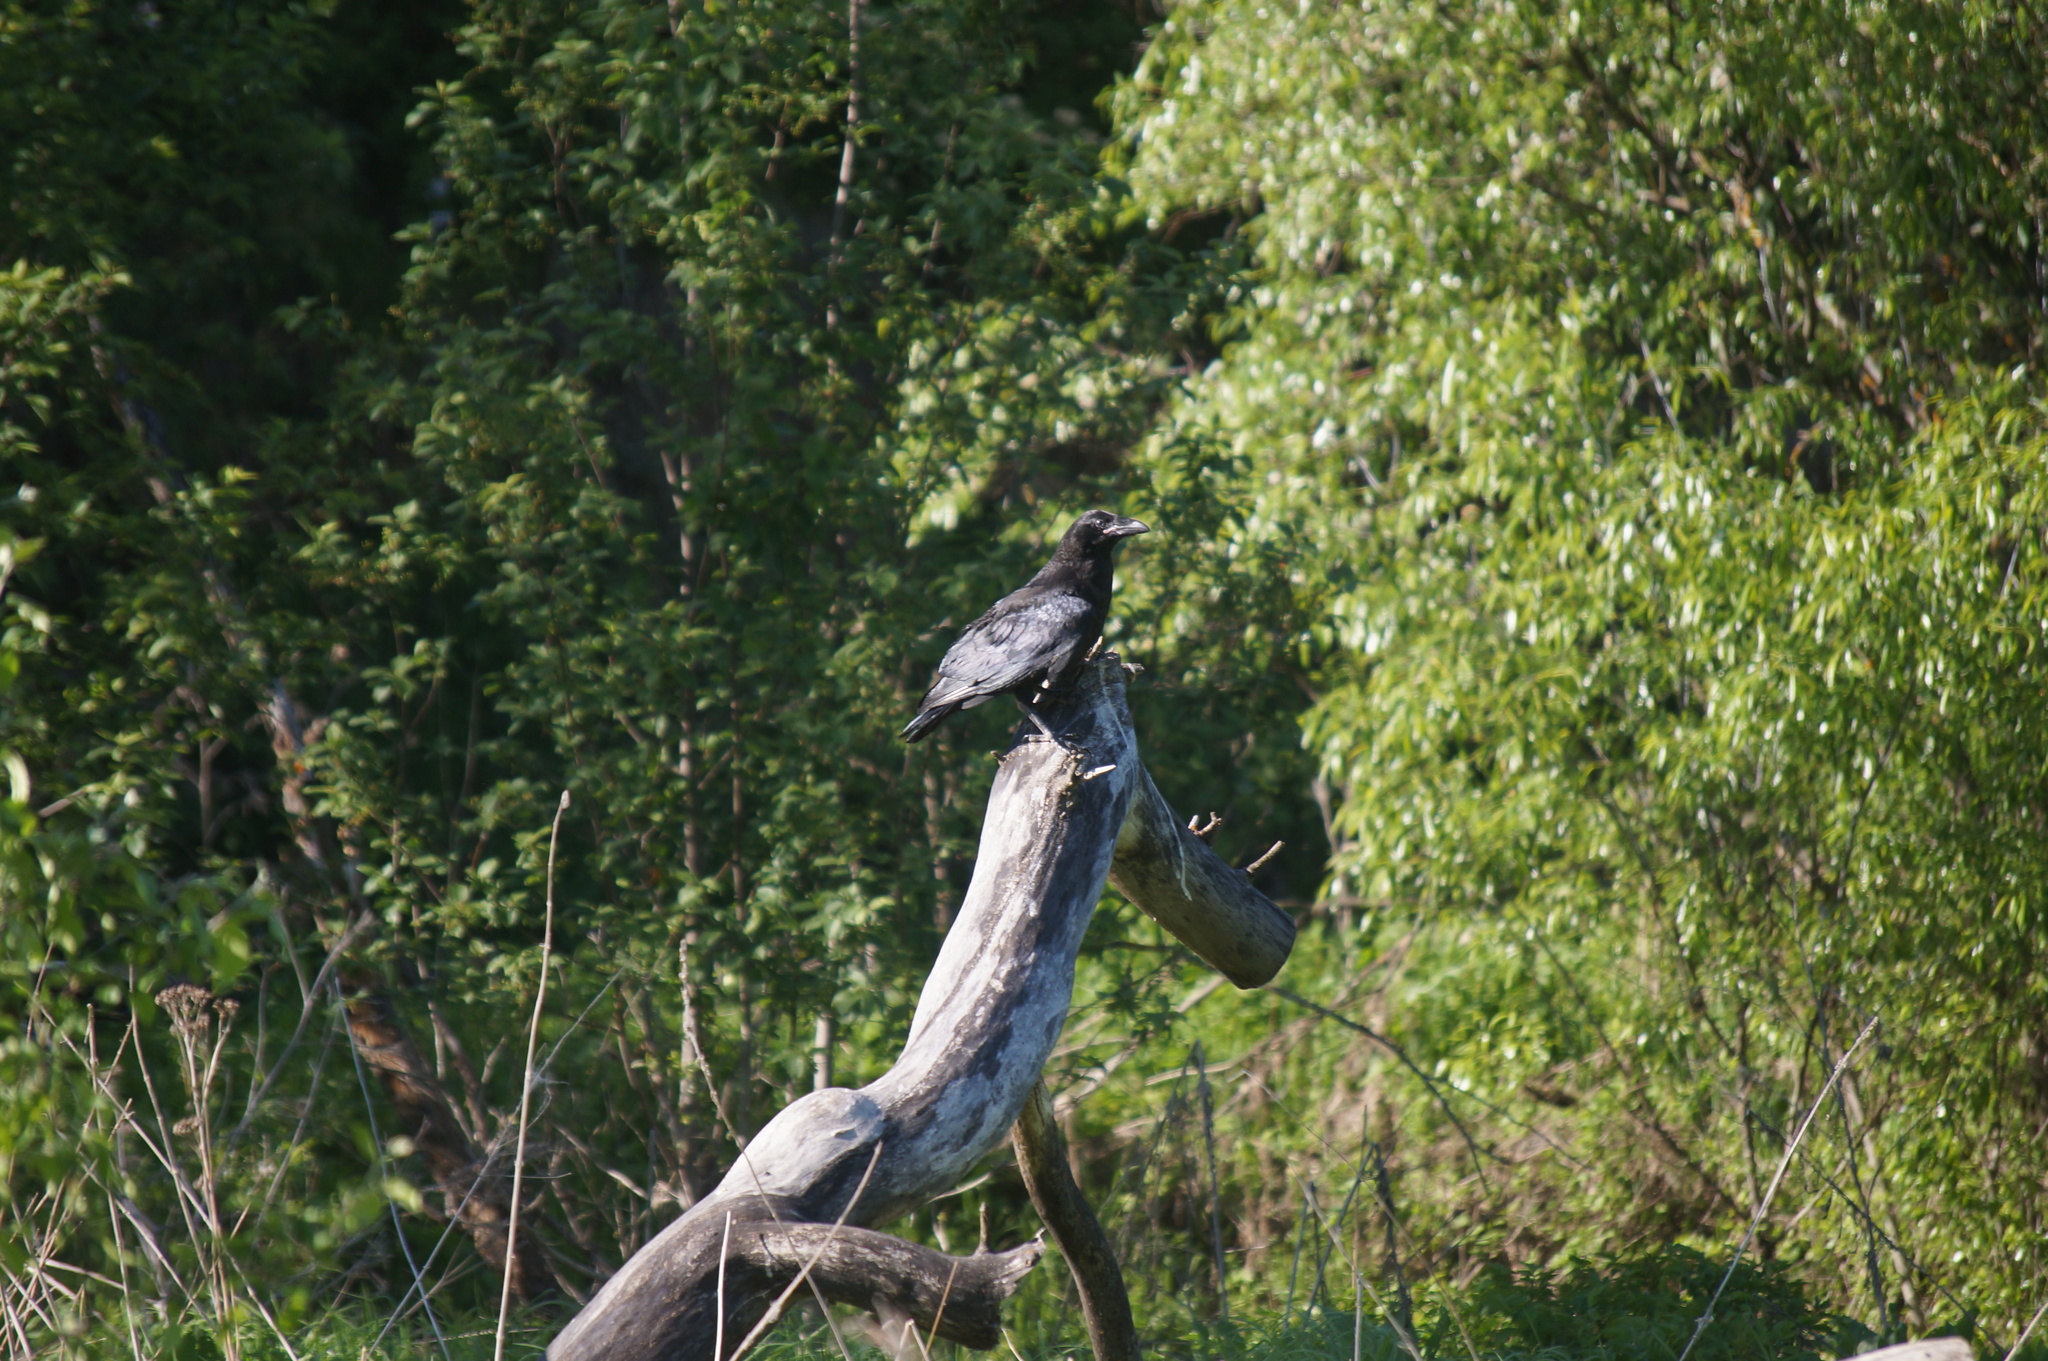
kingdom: Animalia
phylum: Chordata
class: Aves
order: Passeriformes
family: Corvidae
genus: Corvus
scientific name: Corvus corax
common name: Common raven
